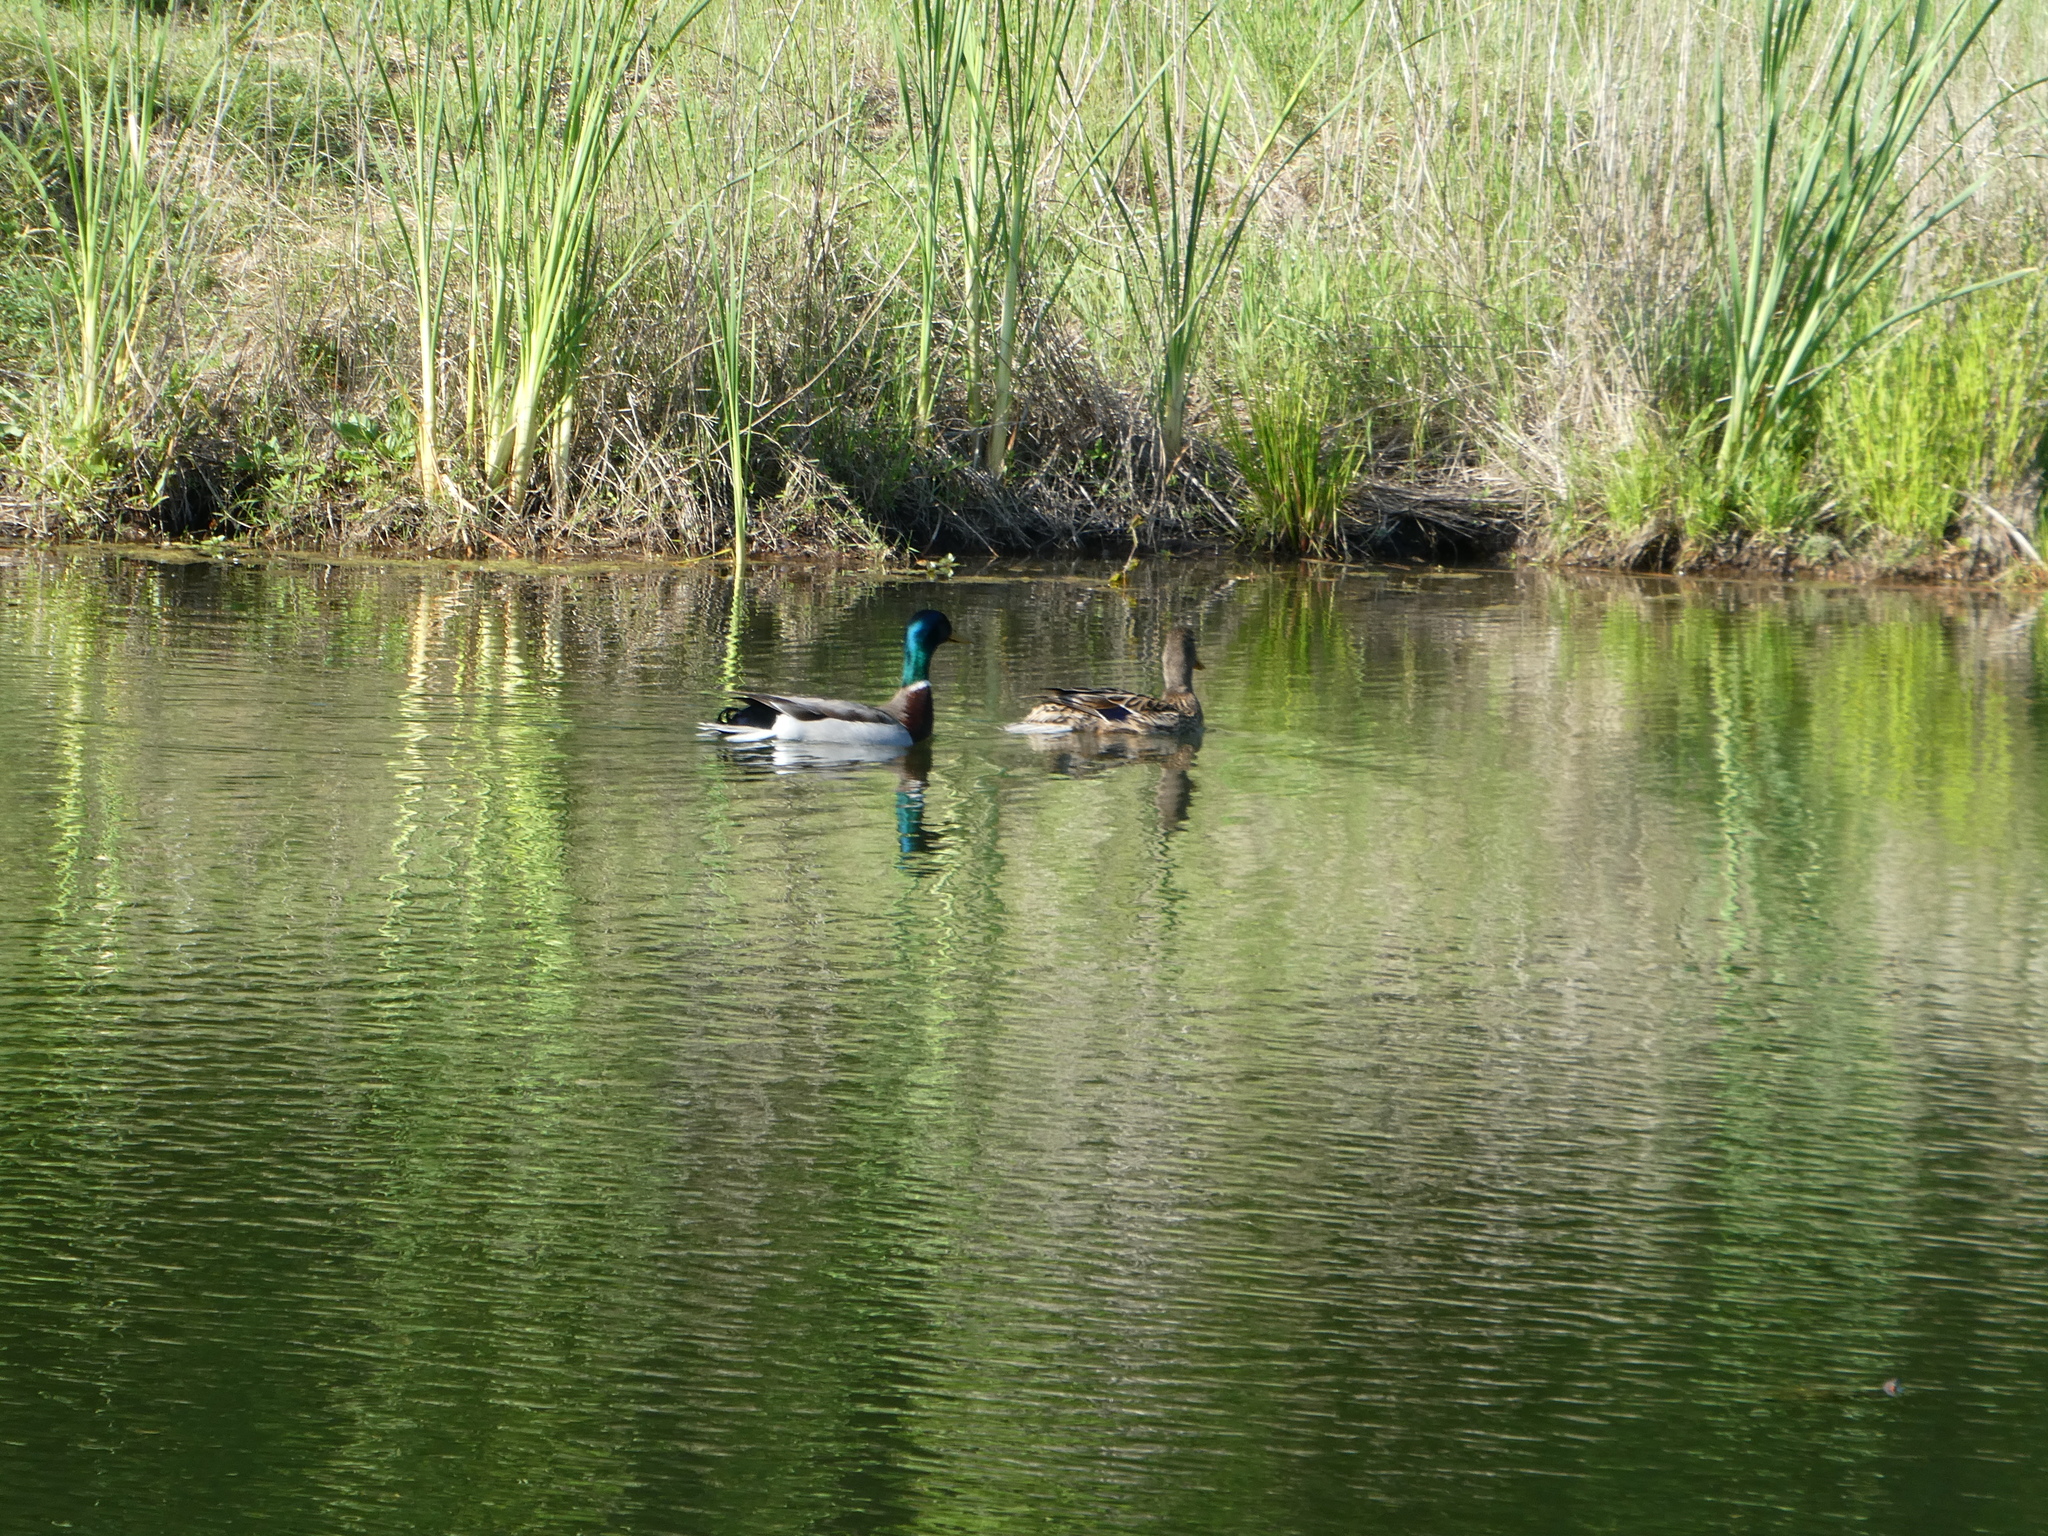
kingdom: Animalia
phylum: Chordata
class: Aves
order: Anseriformes
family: Anatidae
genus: Anas
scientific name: Anas platyrhynchos
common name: Mallard
